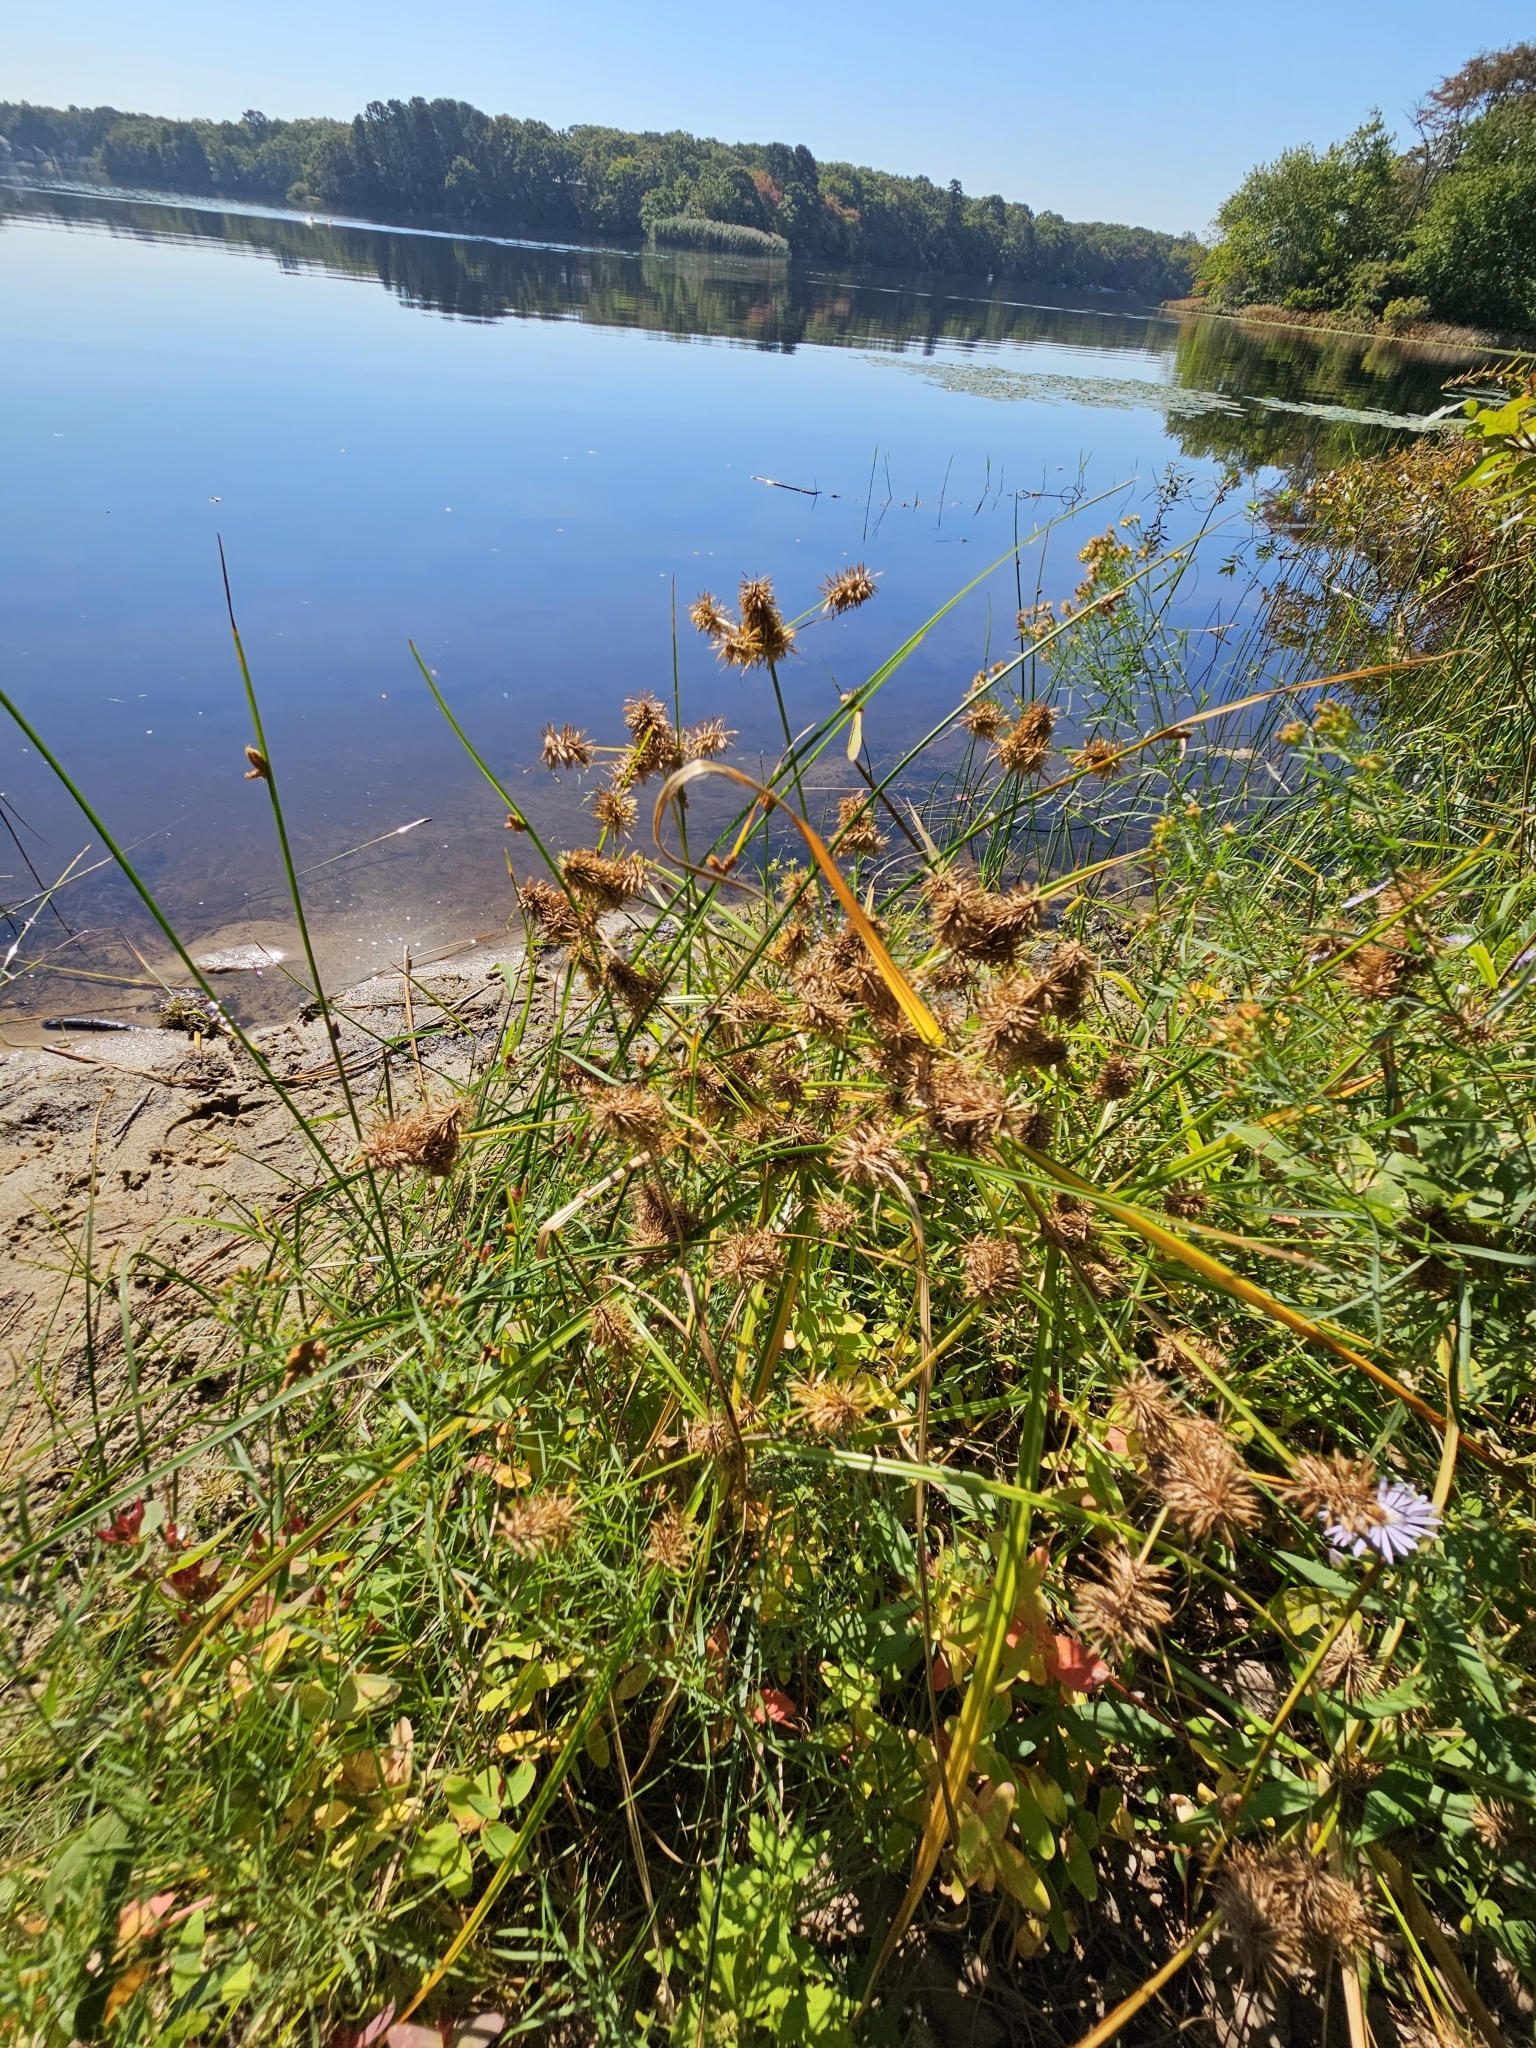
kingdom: Plantae
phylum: Tracheophyta
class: Liliopsida
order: Poales
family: Cyperaceae
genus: Cyperus
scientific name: Cyperus strigosus
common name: False nutsedge
